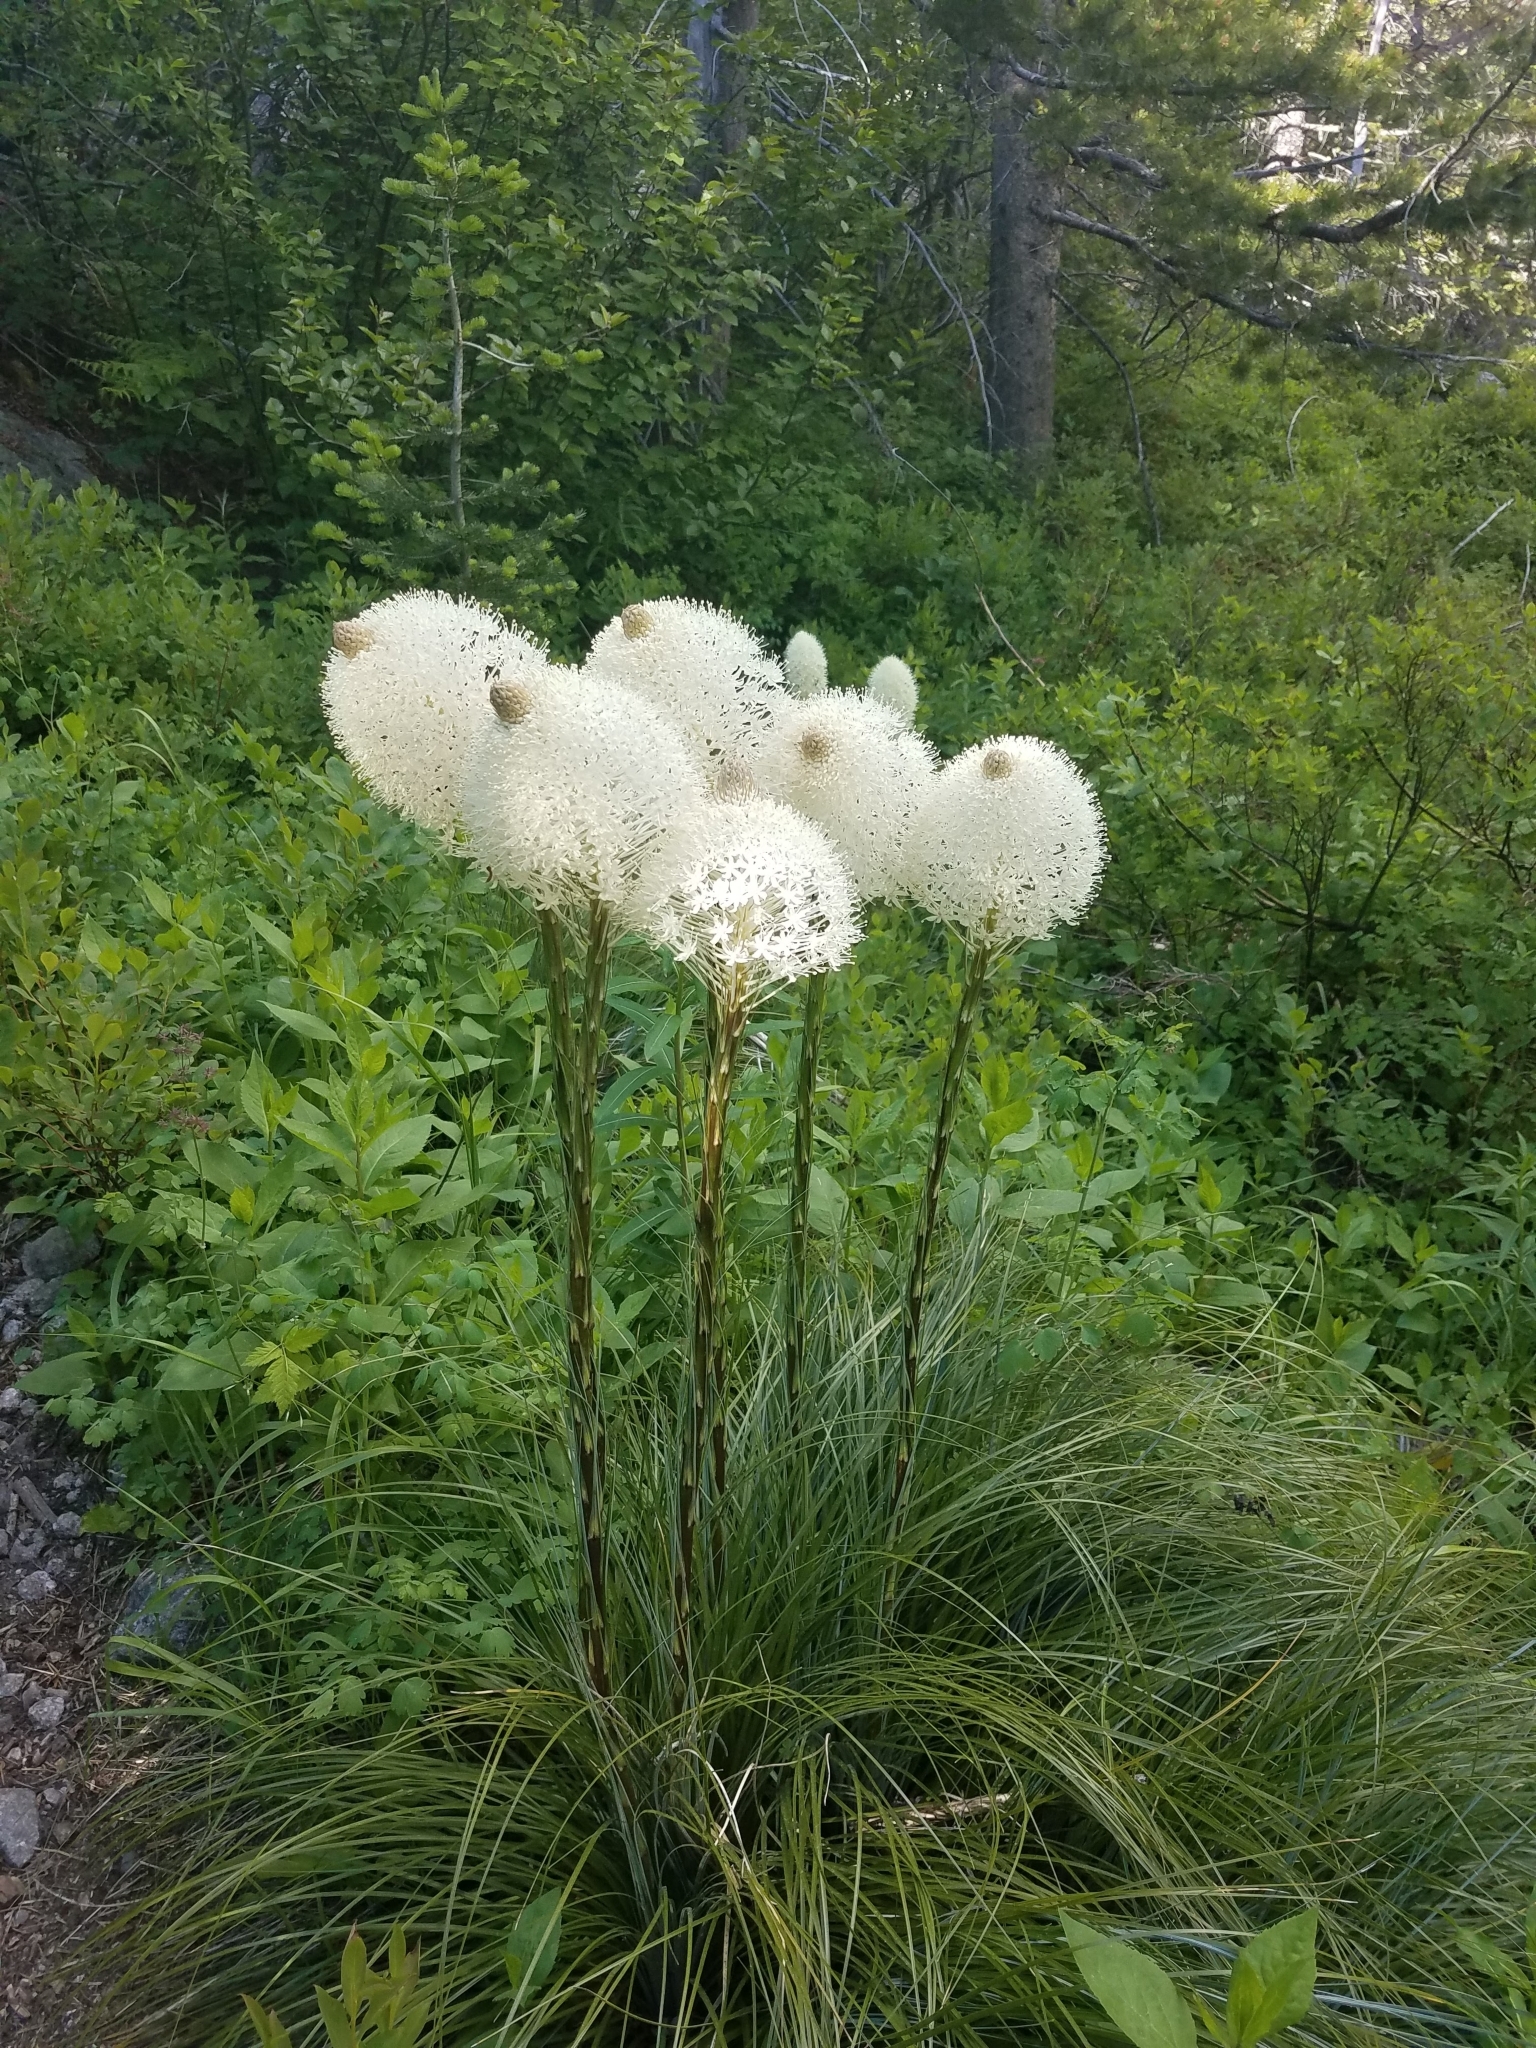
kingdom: Plantae
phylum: Tracheophyta
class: Liliopsida
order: Liliales
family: Melanthiaceae
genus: Xerophyllum
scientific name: Xerophyllum tenax
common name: Bear-grass
